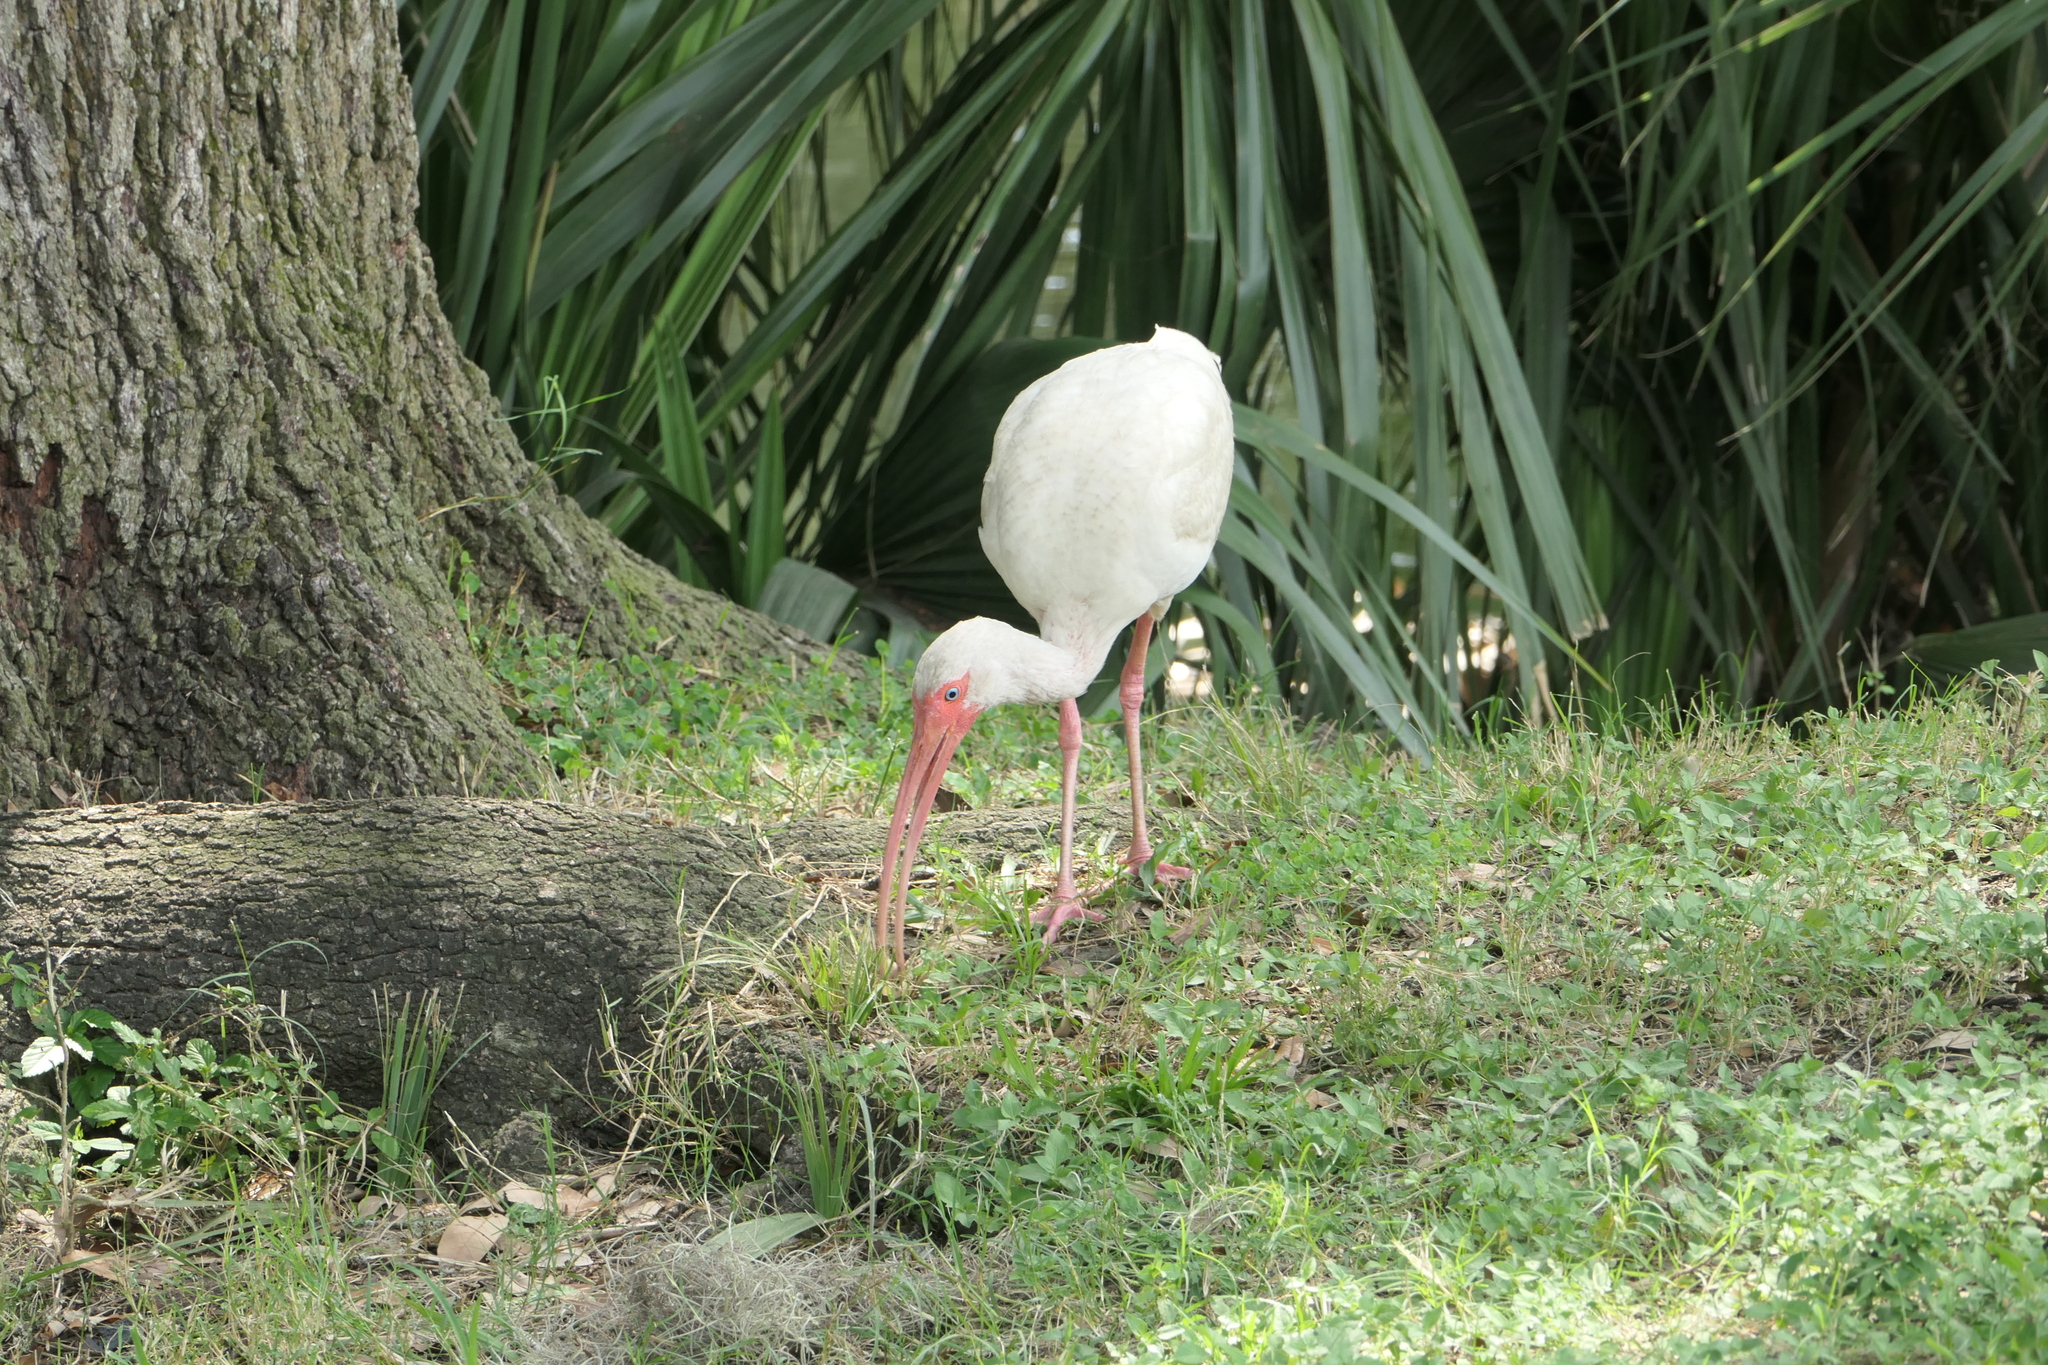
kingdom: Animalia
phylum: Chordata
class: Aves
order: Pelecaniformes
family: Threskiornithidae
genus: Eudocimus
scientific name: Eudocimus albus
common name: White ibis
